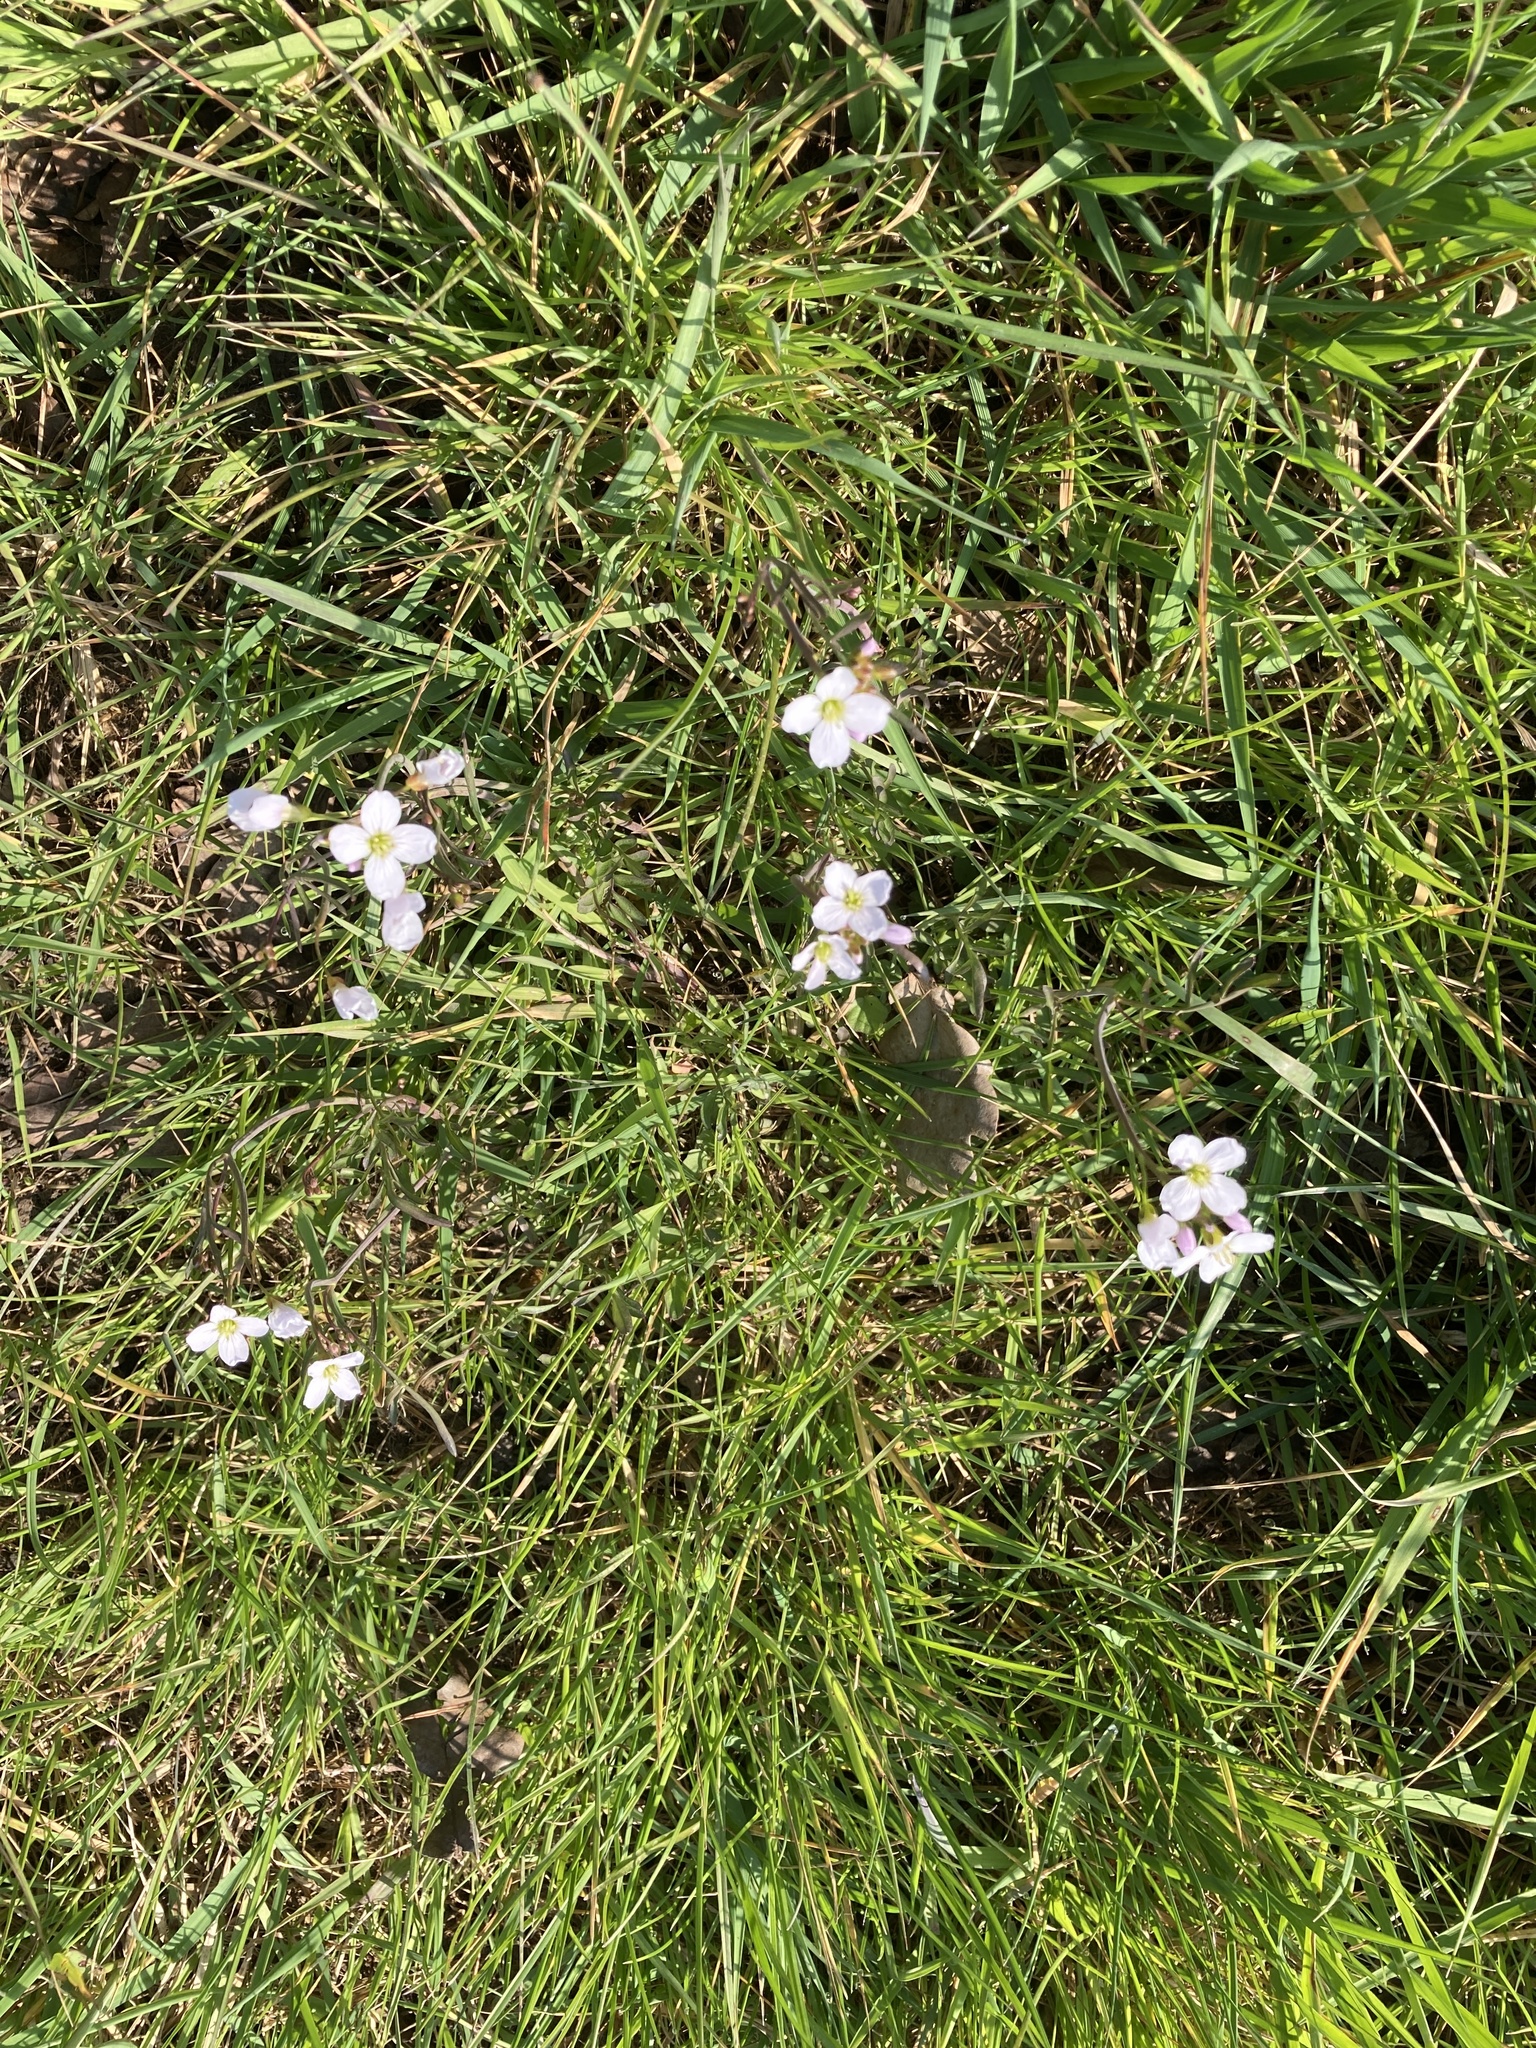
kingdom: Plantae
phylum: Tracheophyta
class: Magnoliopsida
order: Brassicales
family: Brassicaceae
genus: Cardamine
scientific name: Cardamine pratensis
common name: Cuckoo flower
